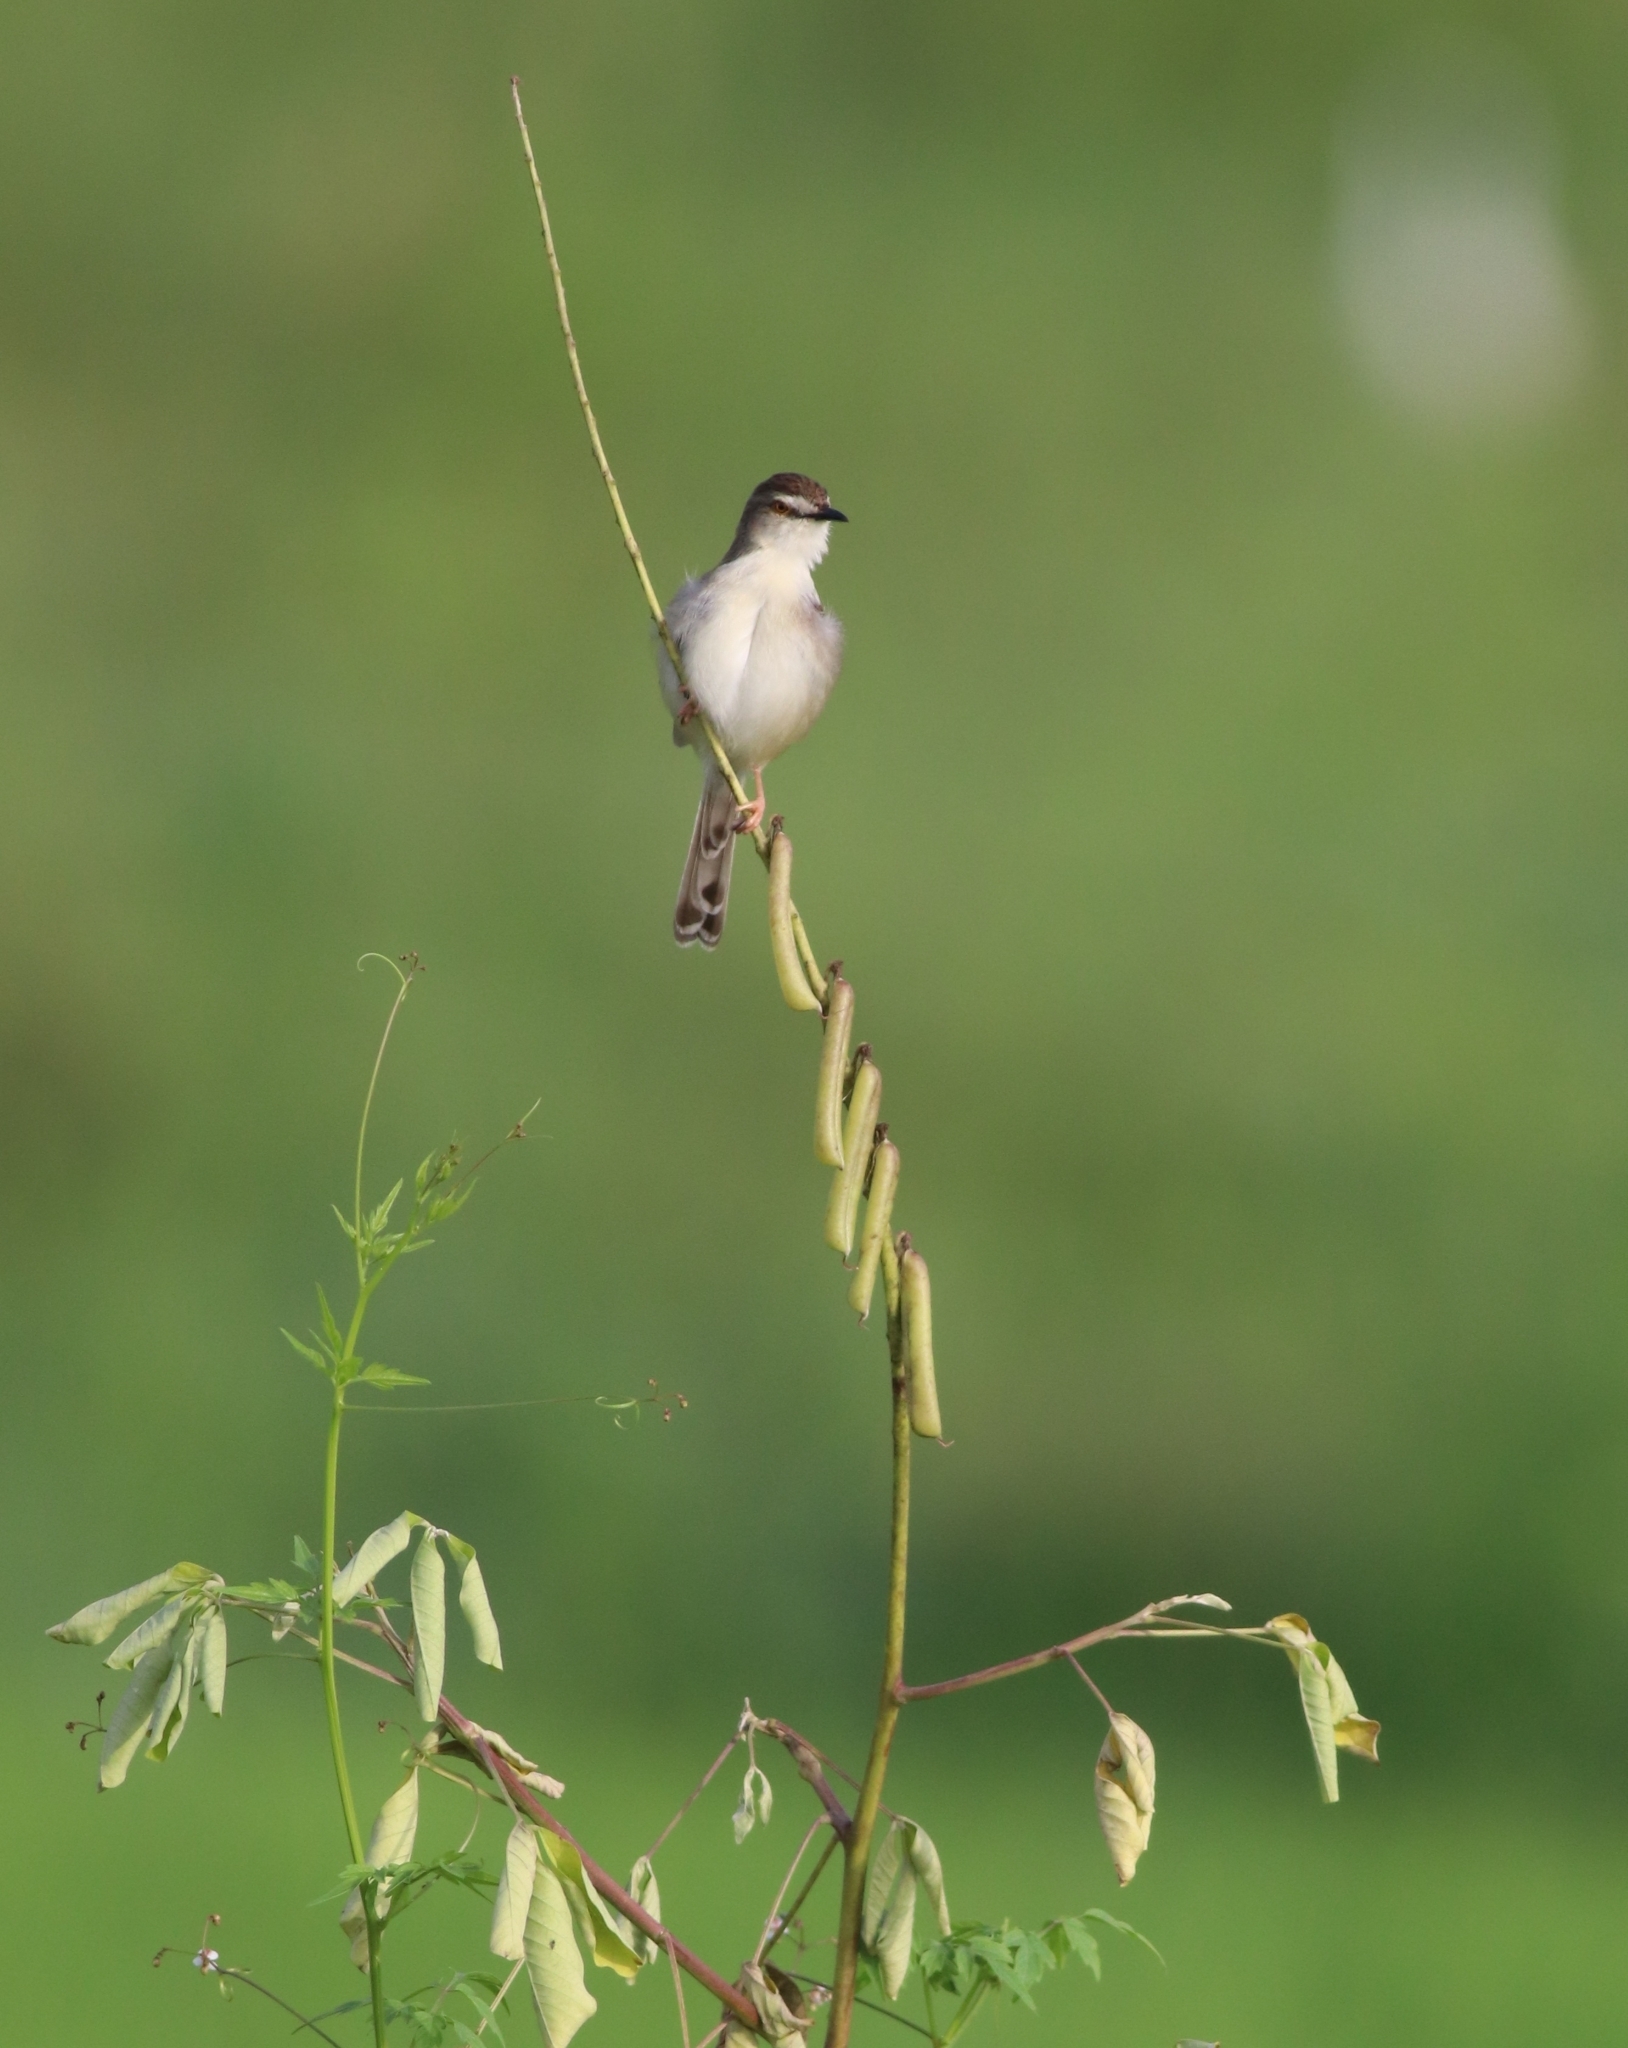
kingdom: Animalia
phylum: Chordata
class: Aves
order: Passeriformes
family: Cisticolidae
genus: Prinia
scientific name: Prinia inornata
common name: Plain prinia
